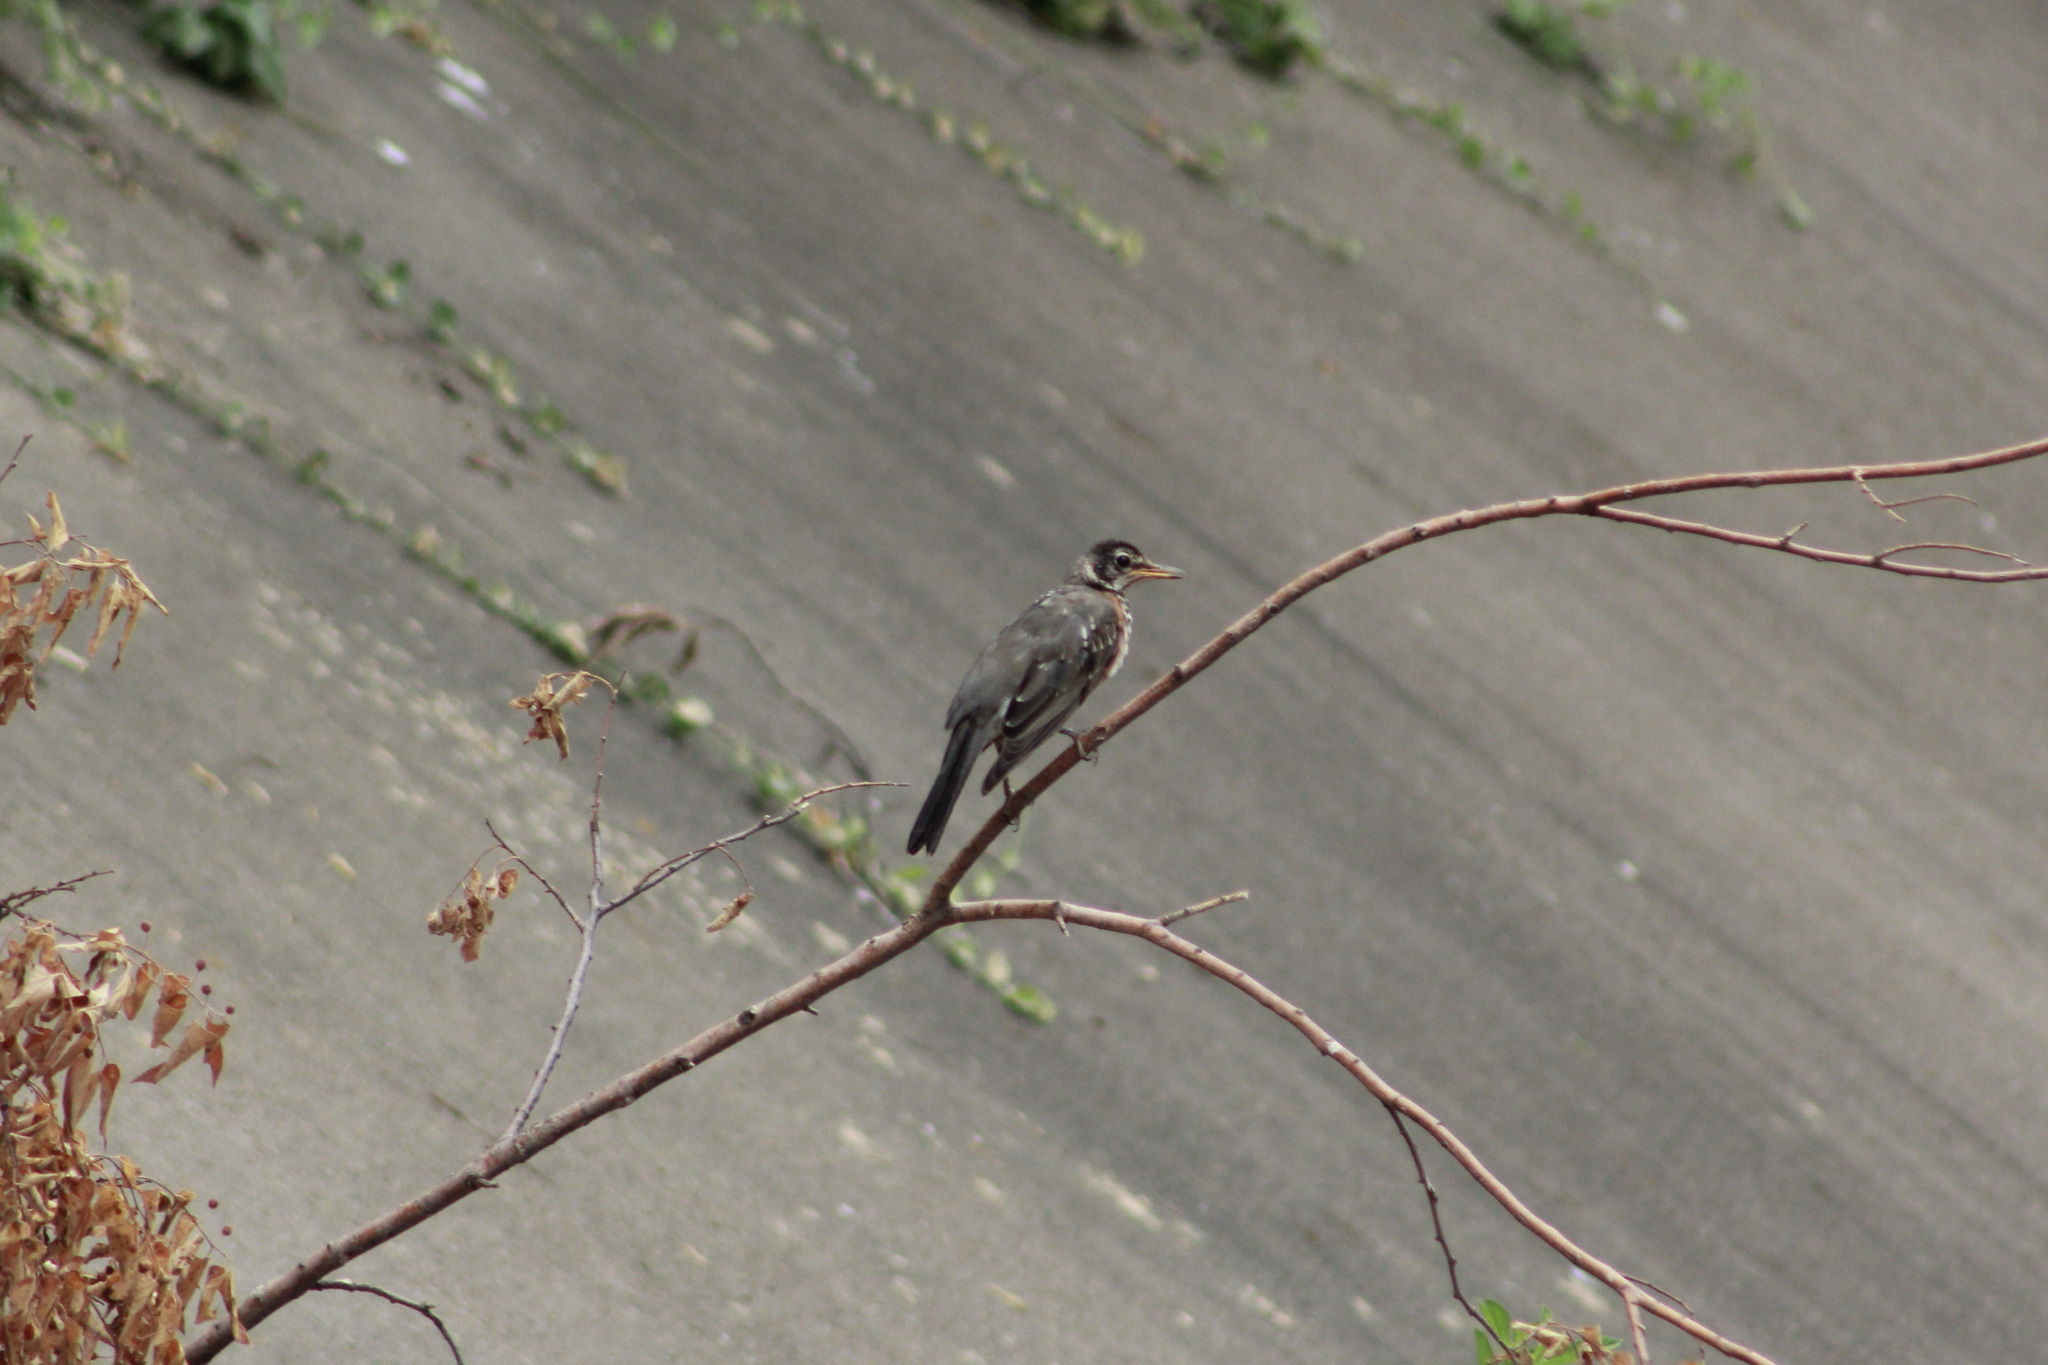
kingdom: Animalia
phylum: Chordata
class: Aves
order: Passeriformes
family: Turdidae
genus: Turdus
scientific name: Turdus migratorius
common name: American robin
